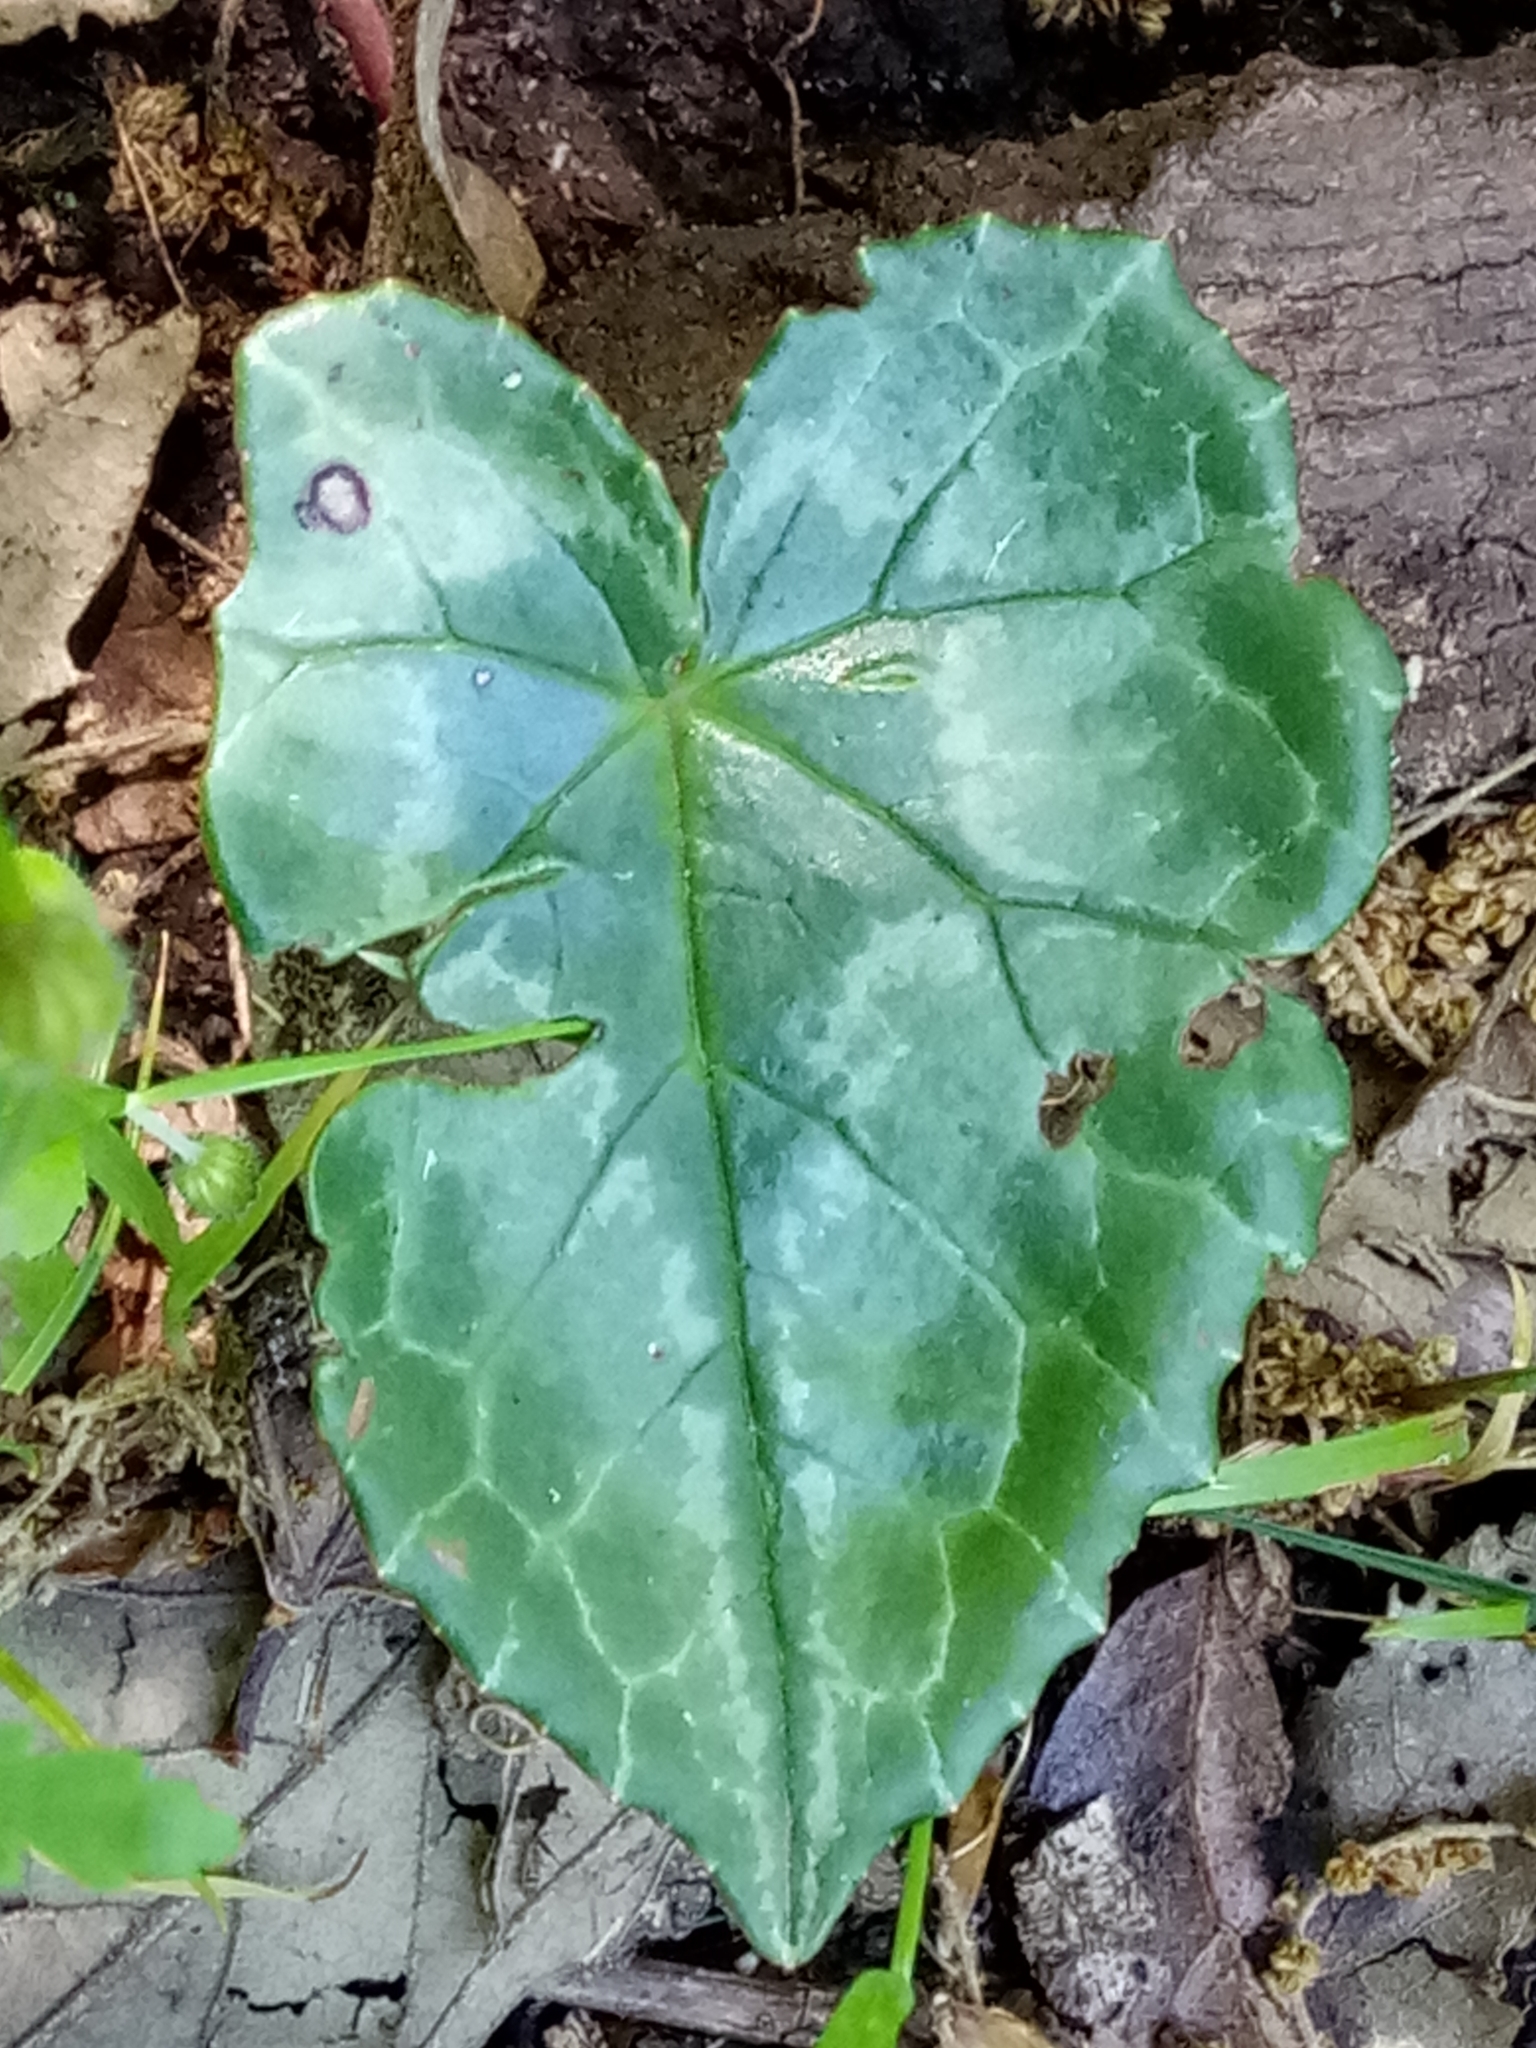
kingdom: Plantae
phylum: Tracheophyta
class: Magnoliopsida
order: Ericales
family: Primulaceae
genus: Cyclamen
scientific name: Cyclamen africanum
